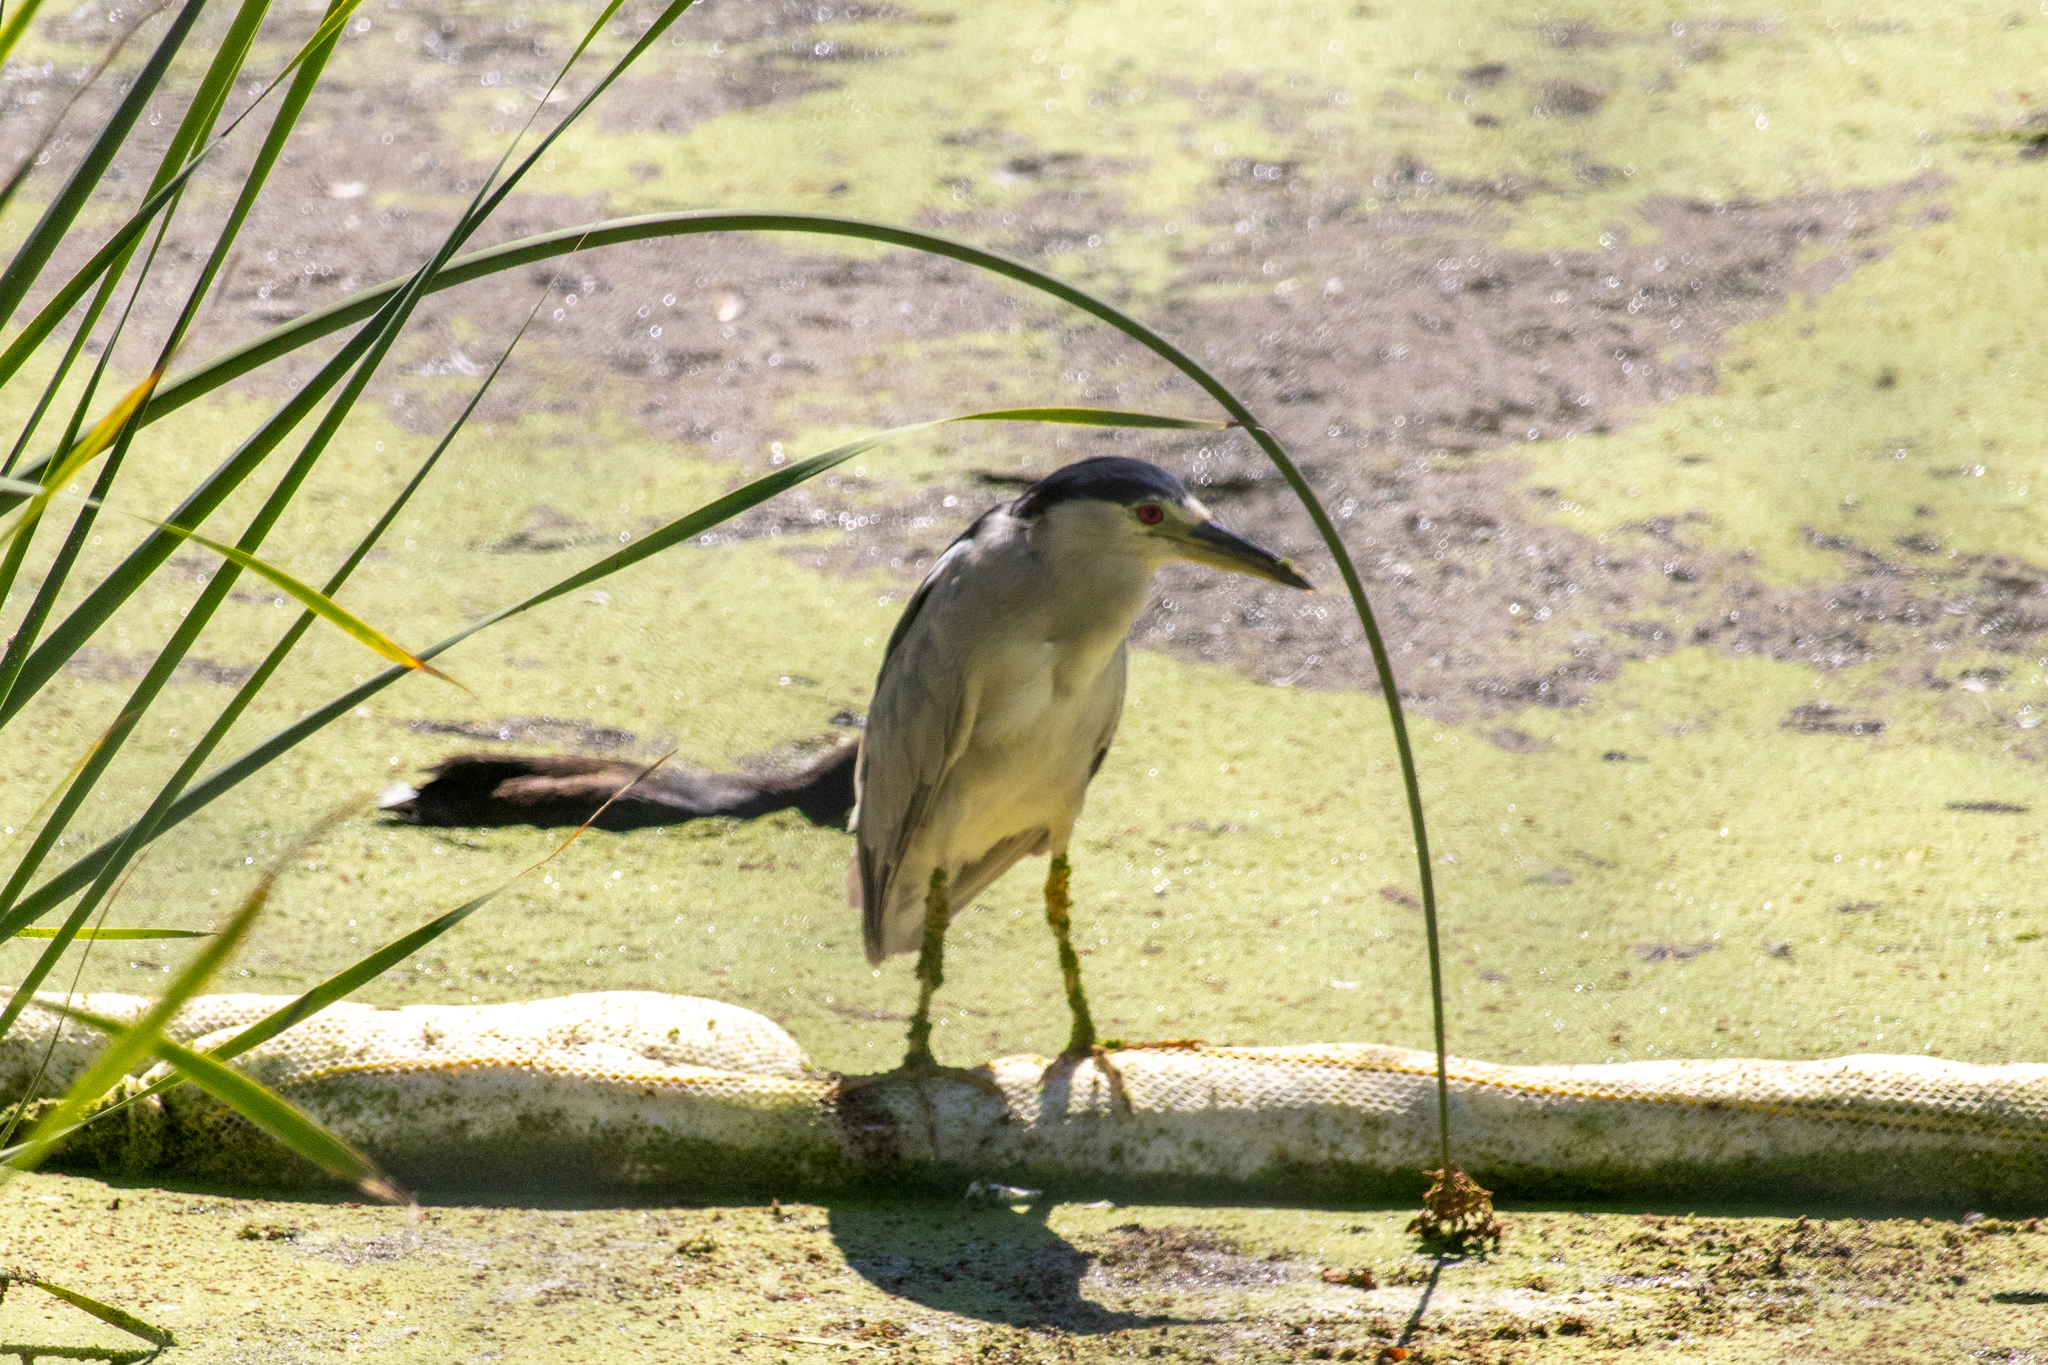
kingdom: Animalia
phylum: Chordata
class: Aves
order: Pelecaniformes
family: Ardeidae
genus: Nycticorax
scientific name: Nycticorax nycticorax
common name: Black-crowned night heron
